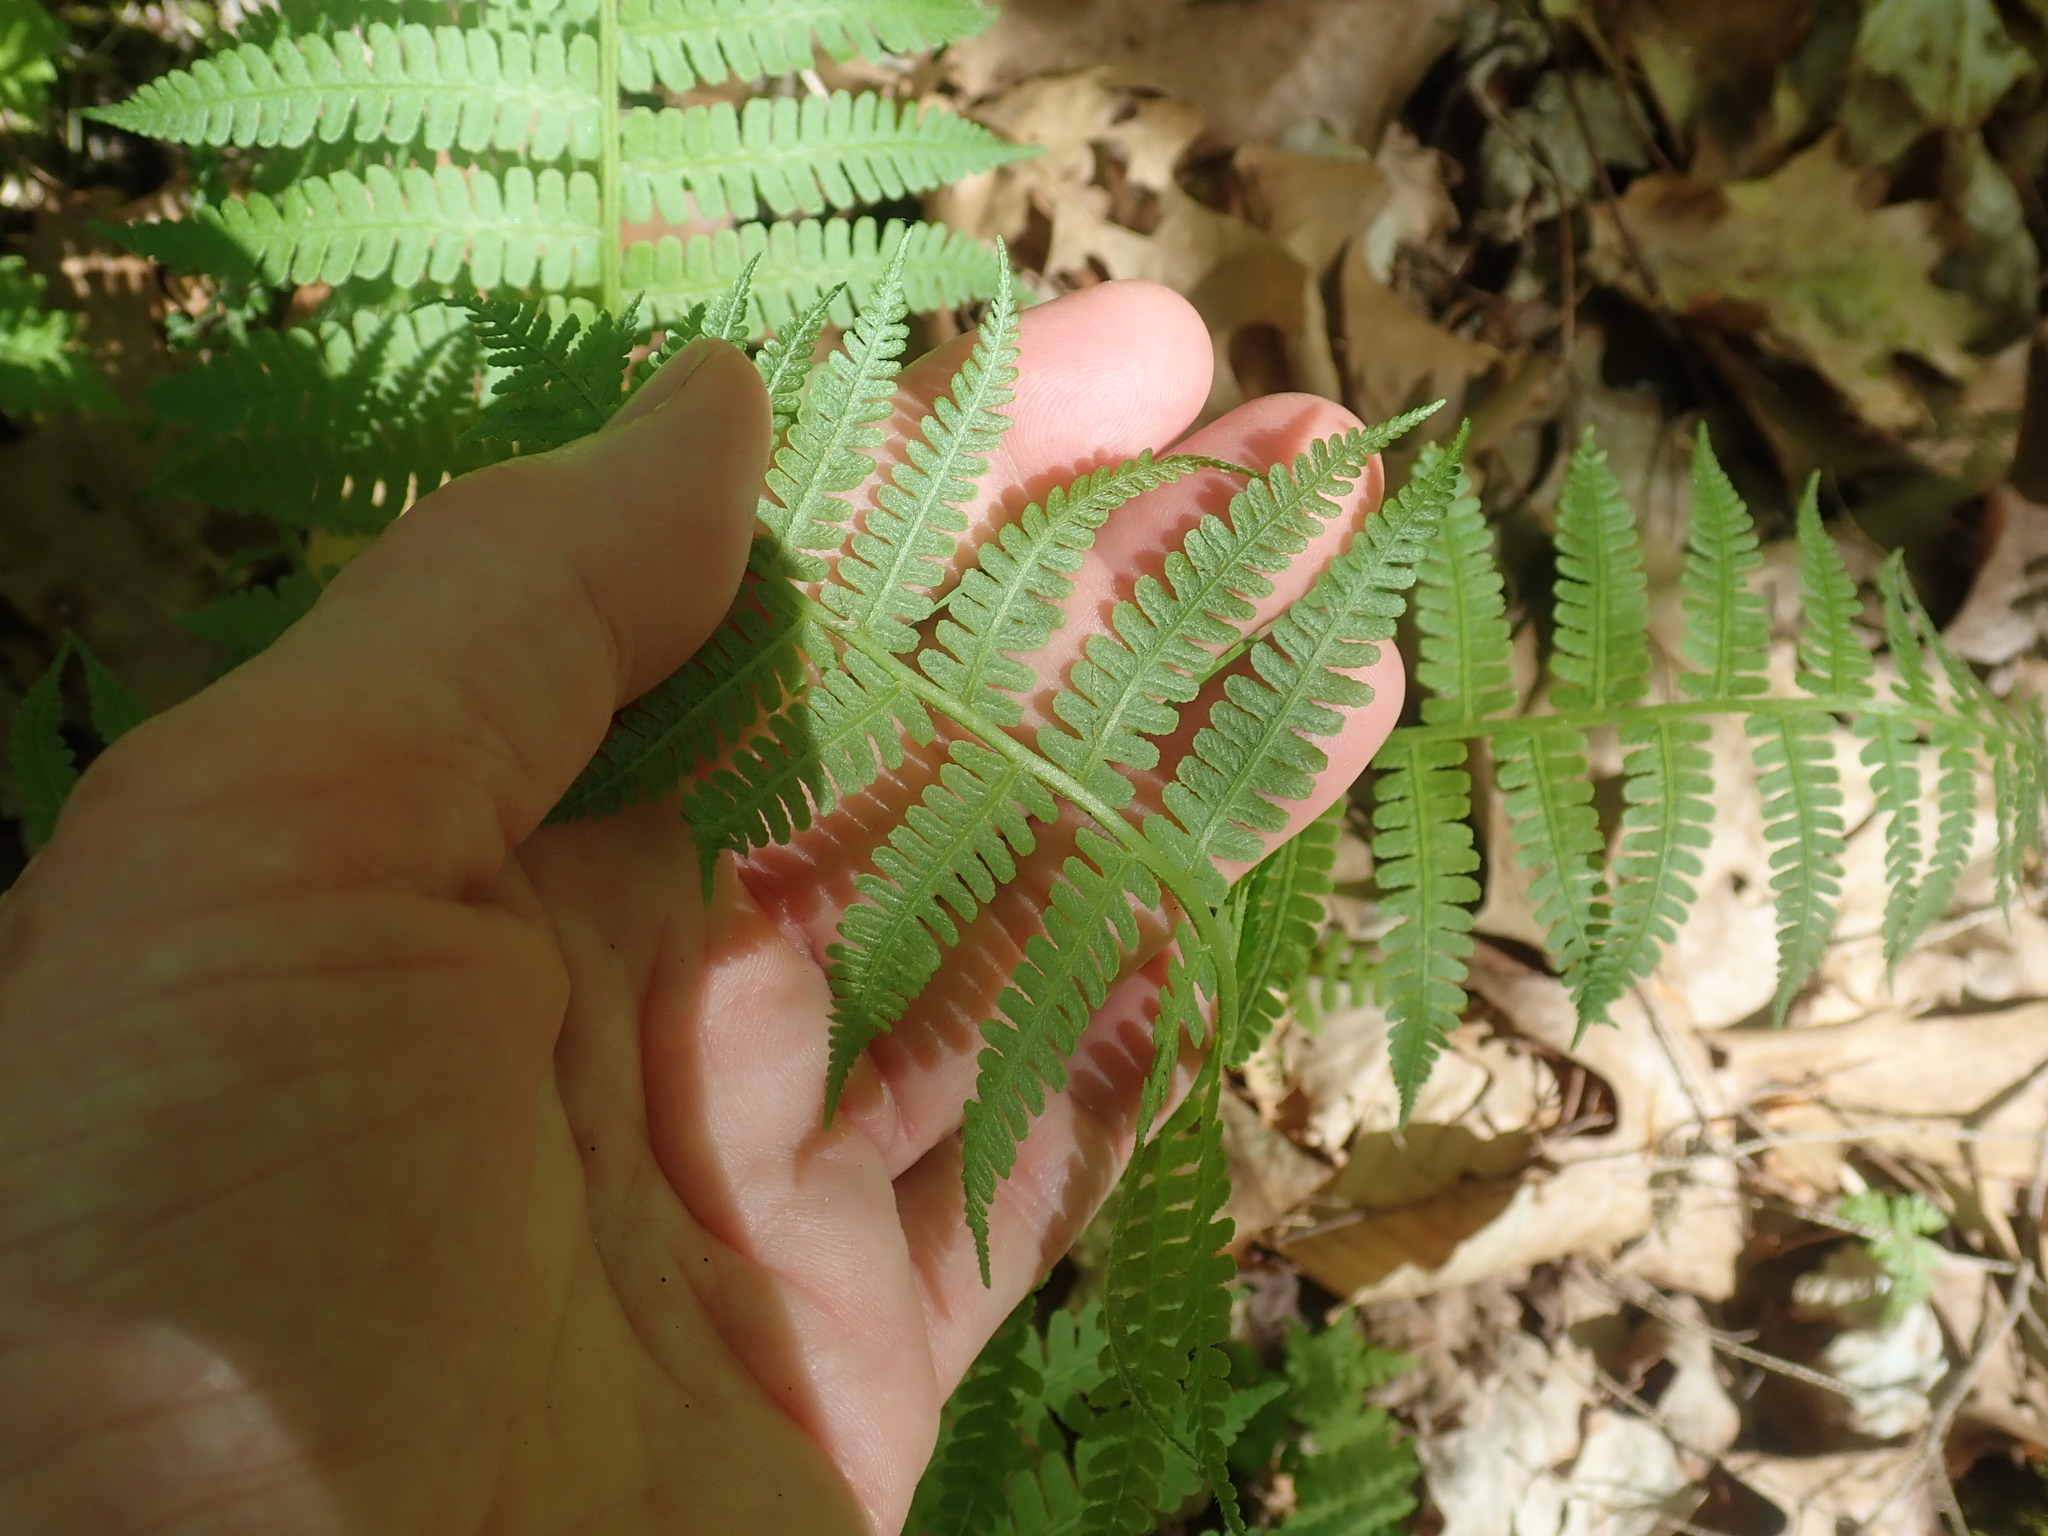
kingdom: Plantae
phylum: Tracheophyta
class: Polypodiopsida
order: Polypodiales
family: Athyriaceae
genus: Deparia
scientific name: Deparia acrostichoides
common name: Silver false spleenwort
